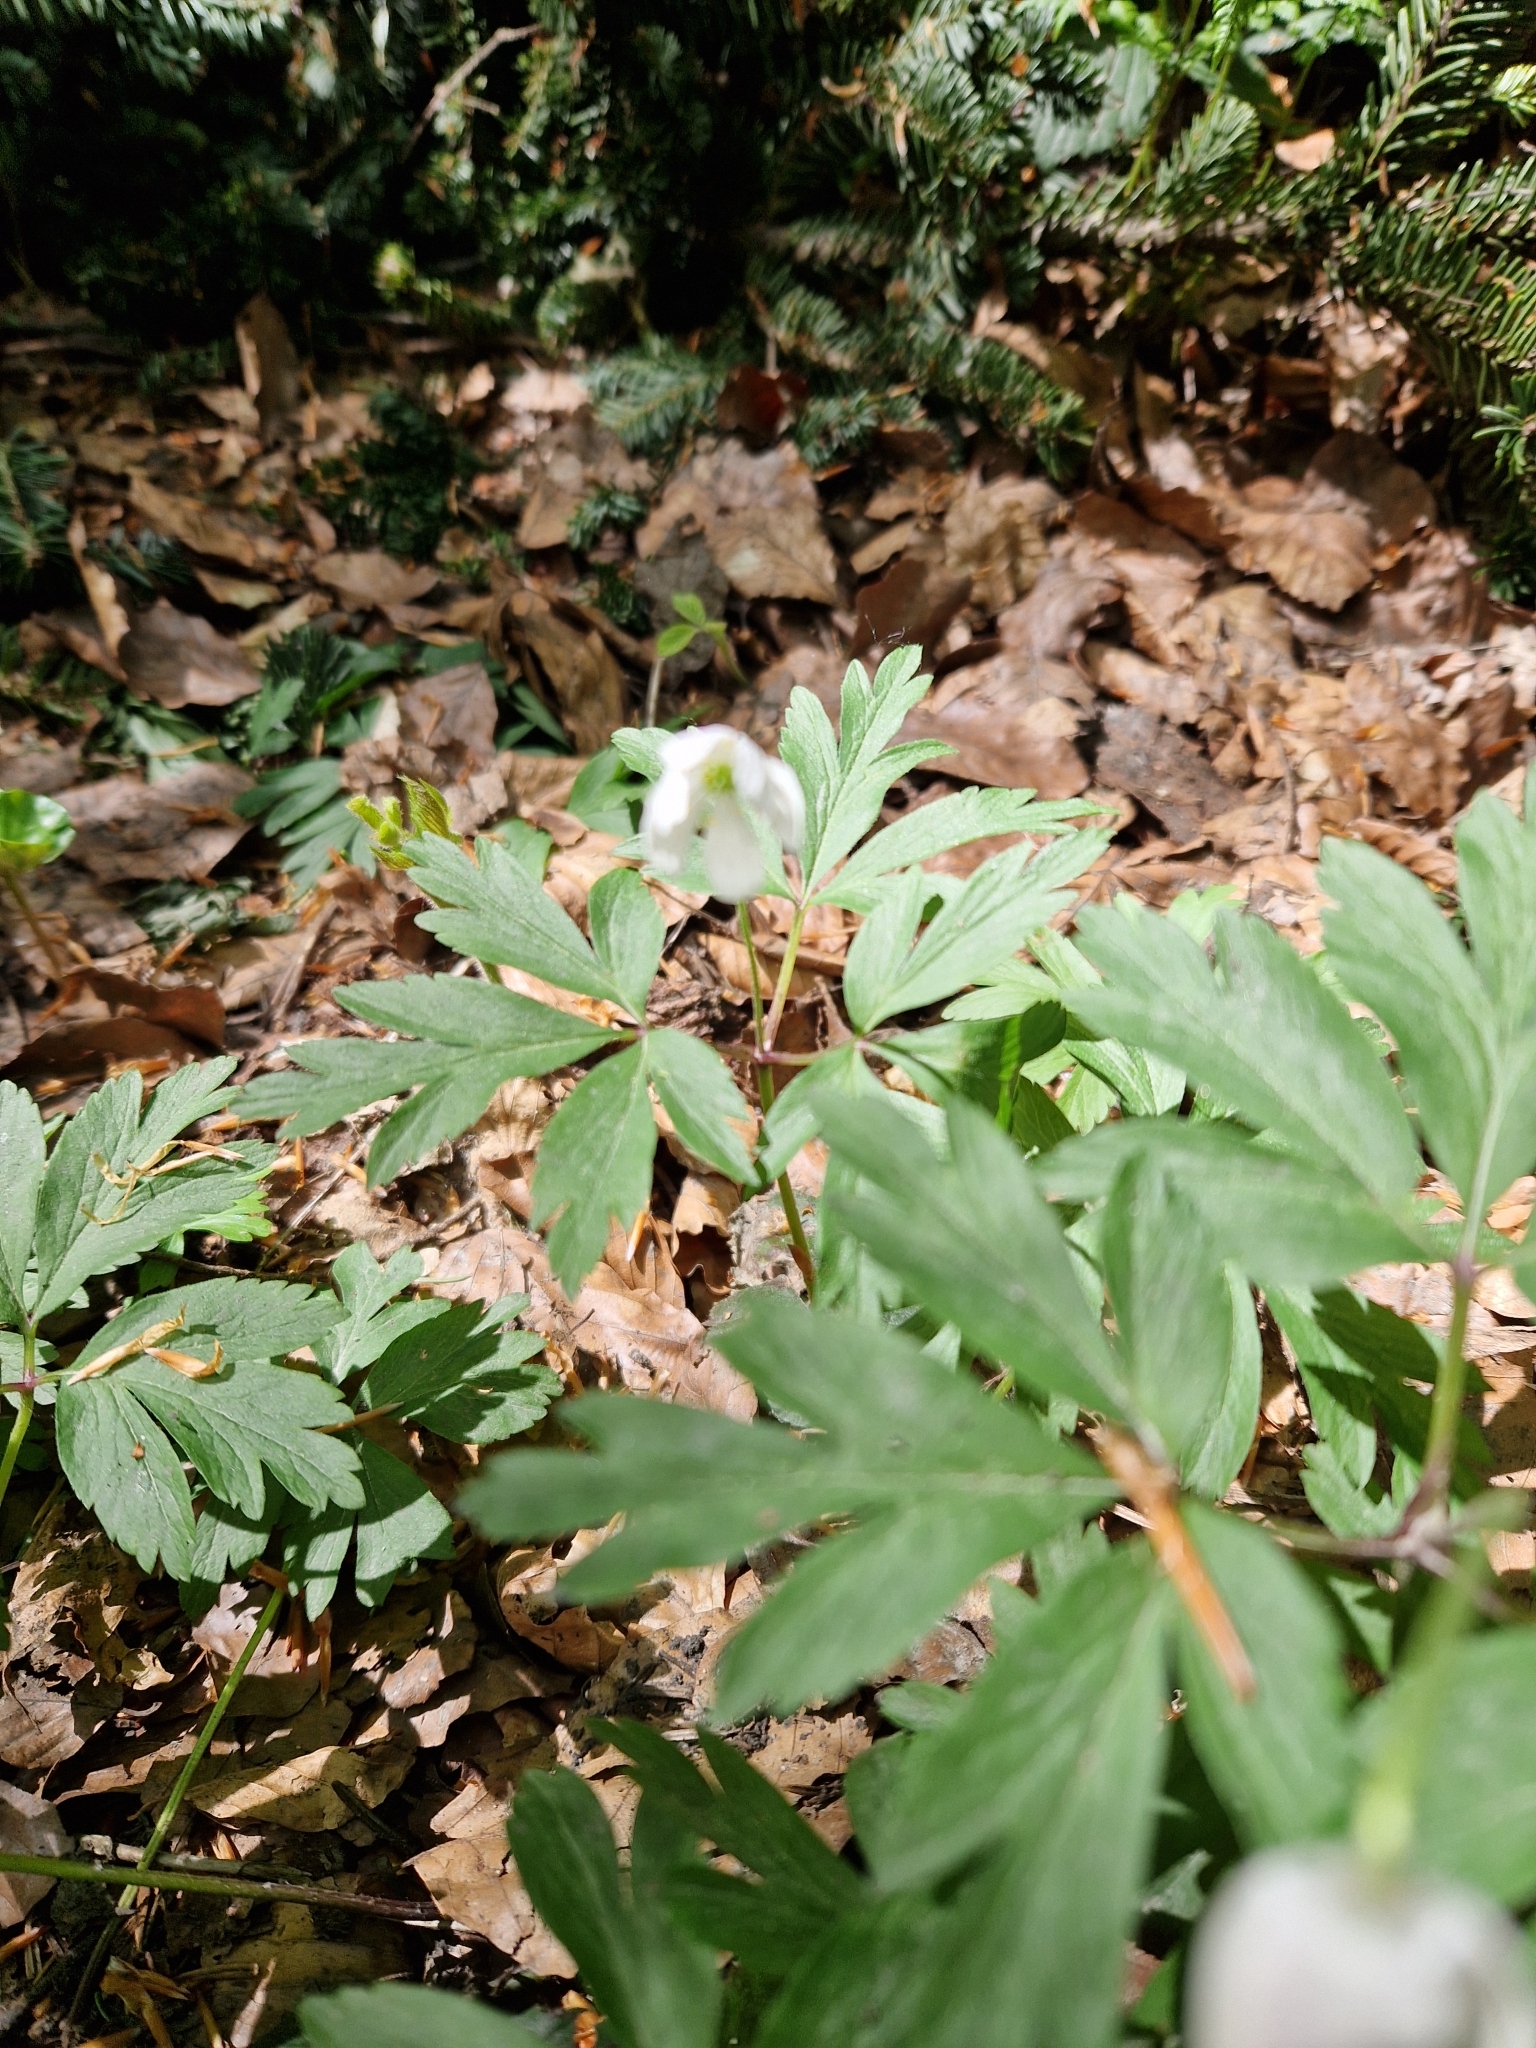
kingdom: Plantae
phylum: Tracheophyta
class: Magnoliopsida
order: Ranunculales
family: Ranunculaceae
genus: Anemone
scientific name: Anemone nemorosa
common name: Wood anemone
